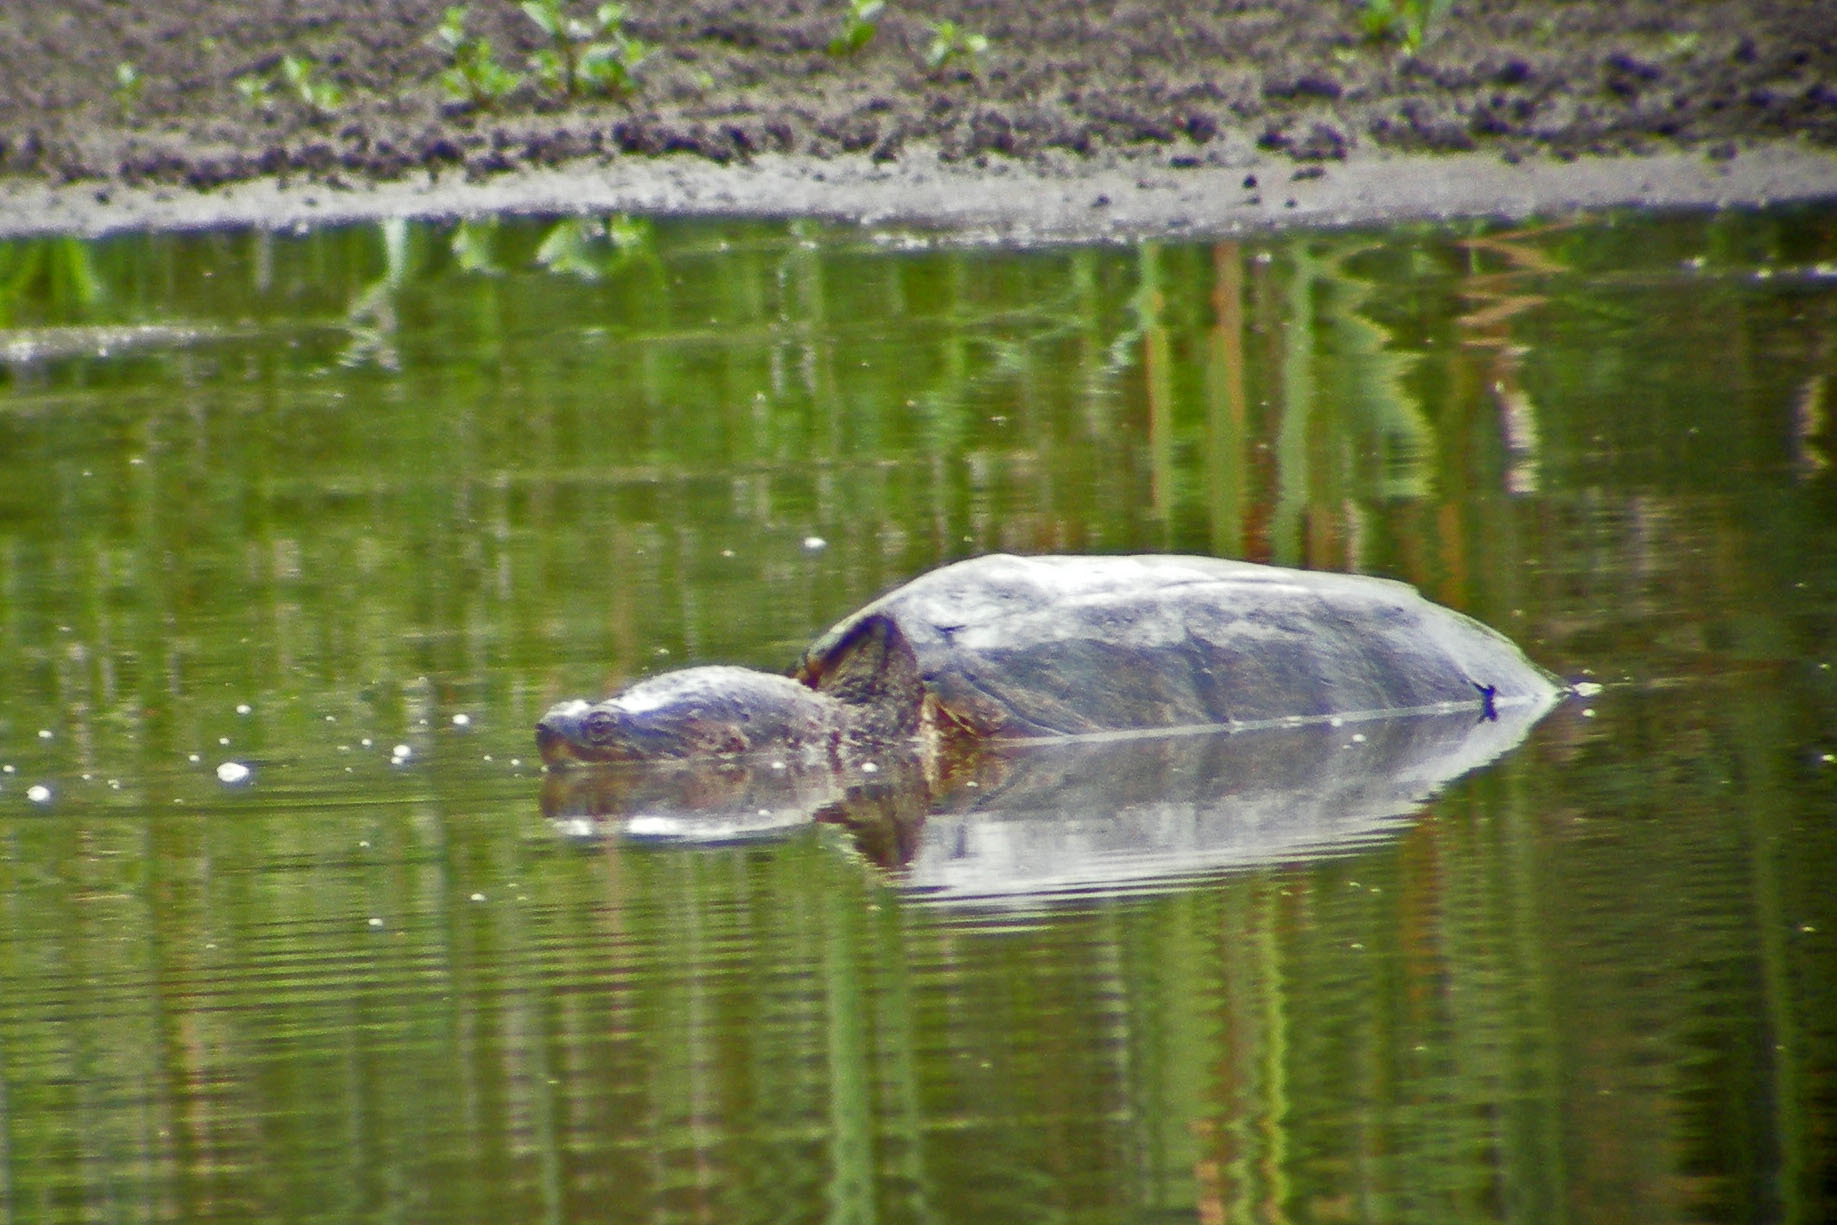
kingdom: Animalia
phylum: Chordata
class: Testudines
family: Chelydridae
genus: Chelydra
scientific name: Chelydra serpentina
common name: Common snapping turtle
